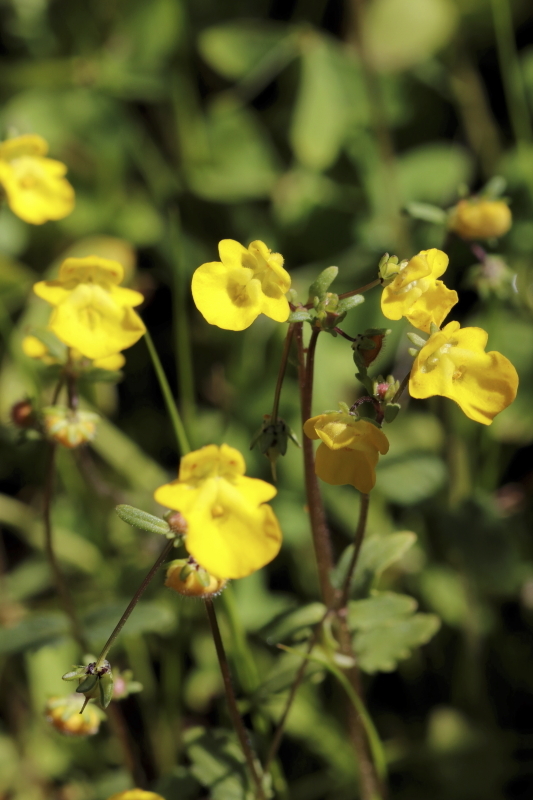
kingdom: Plantae
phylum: Tracheophyta
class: Magnoliopsida
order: Lamiales
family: Scrophulariaceae
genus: Hemimeris
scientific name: Hemimeris racemosa
